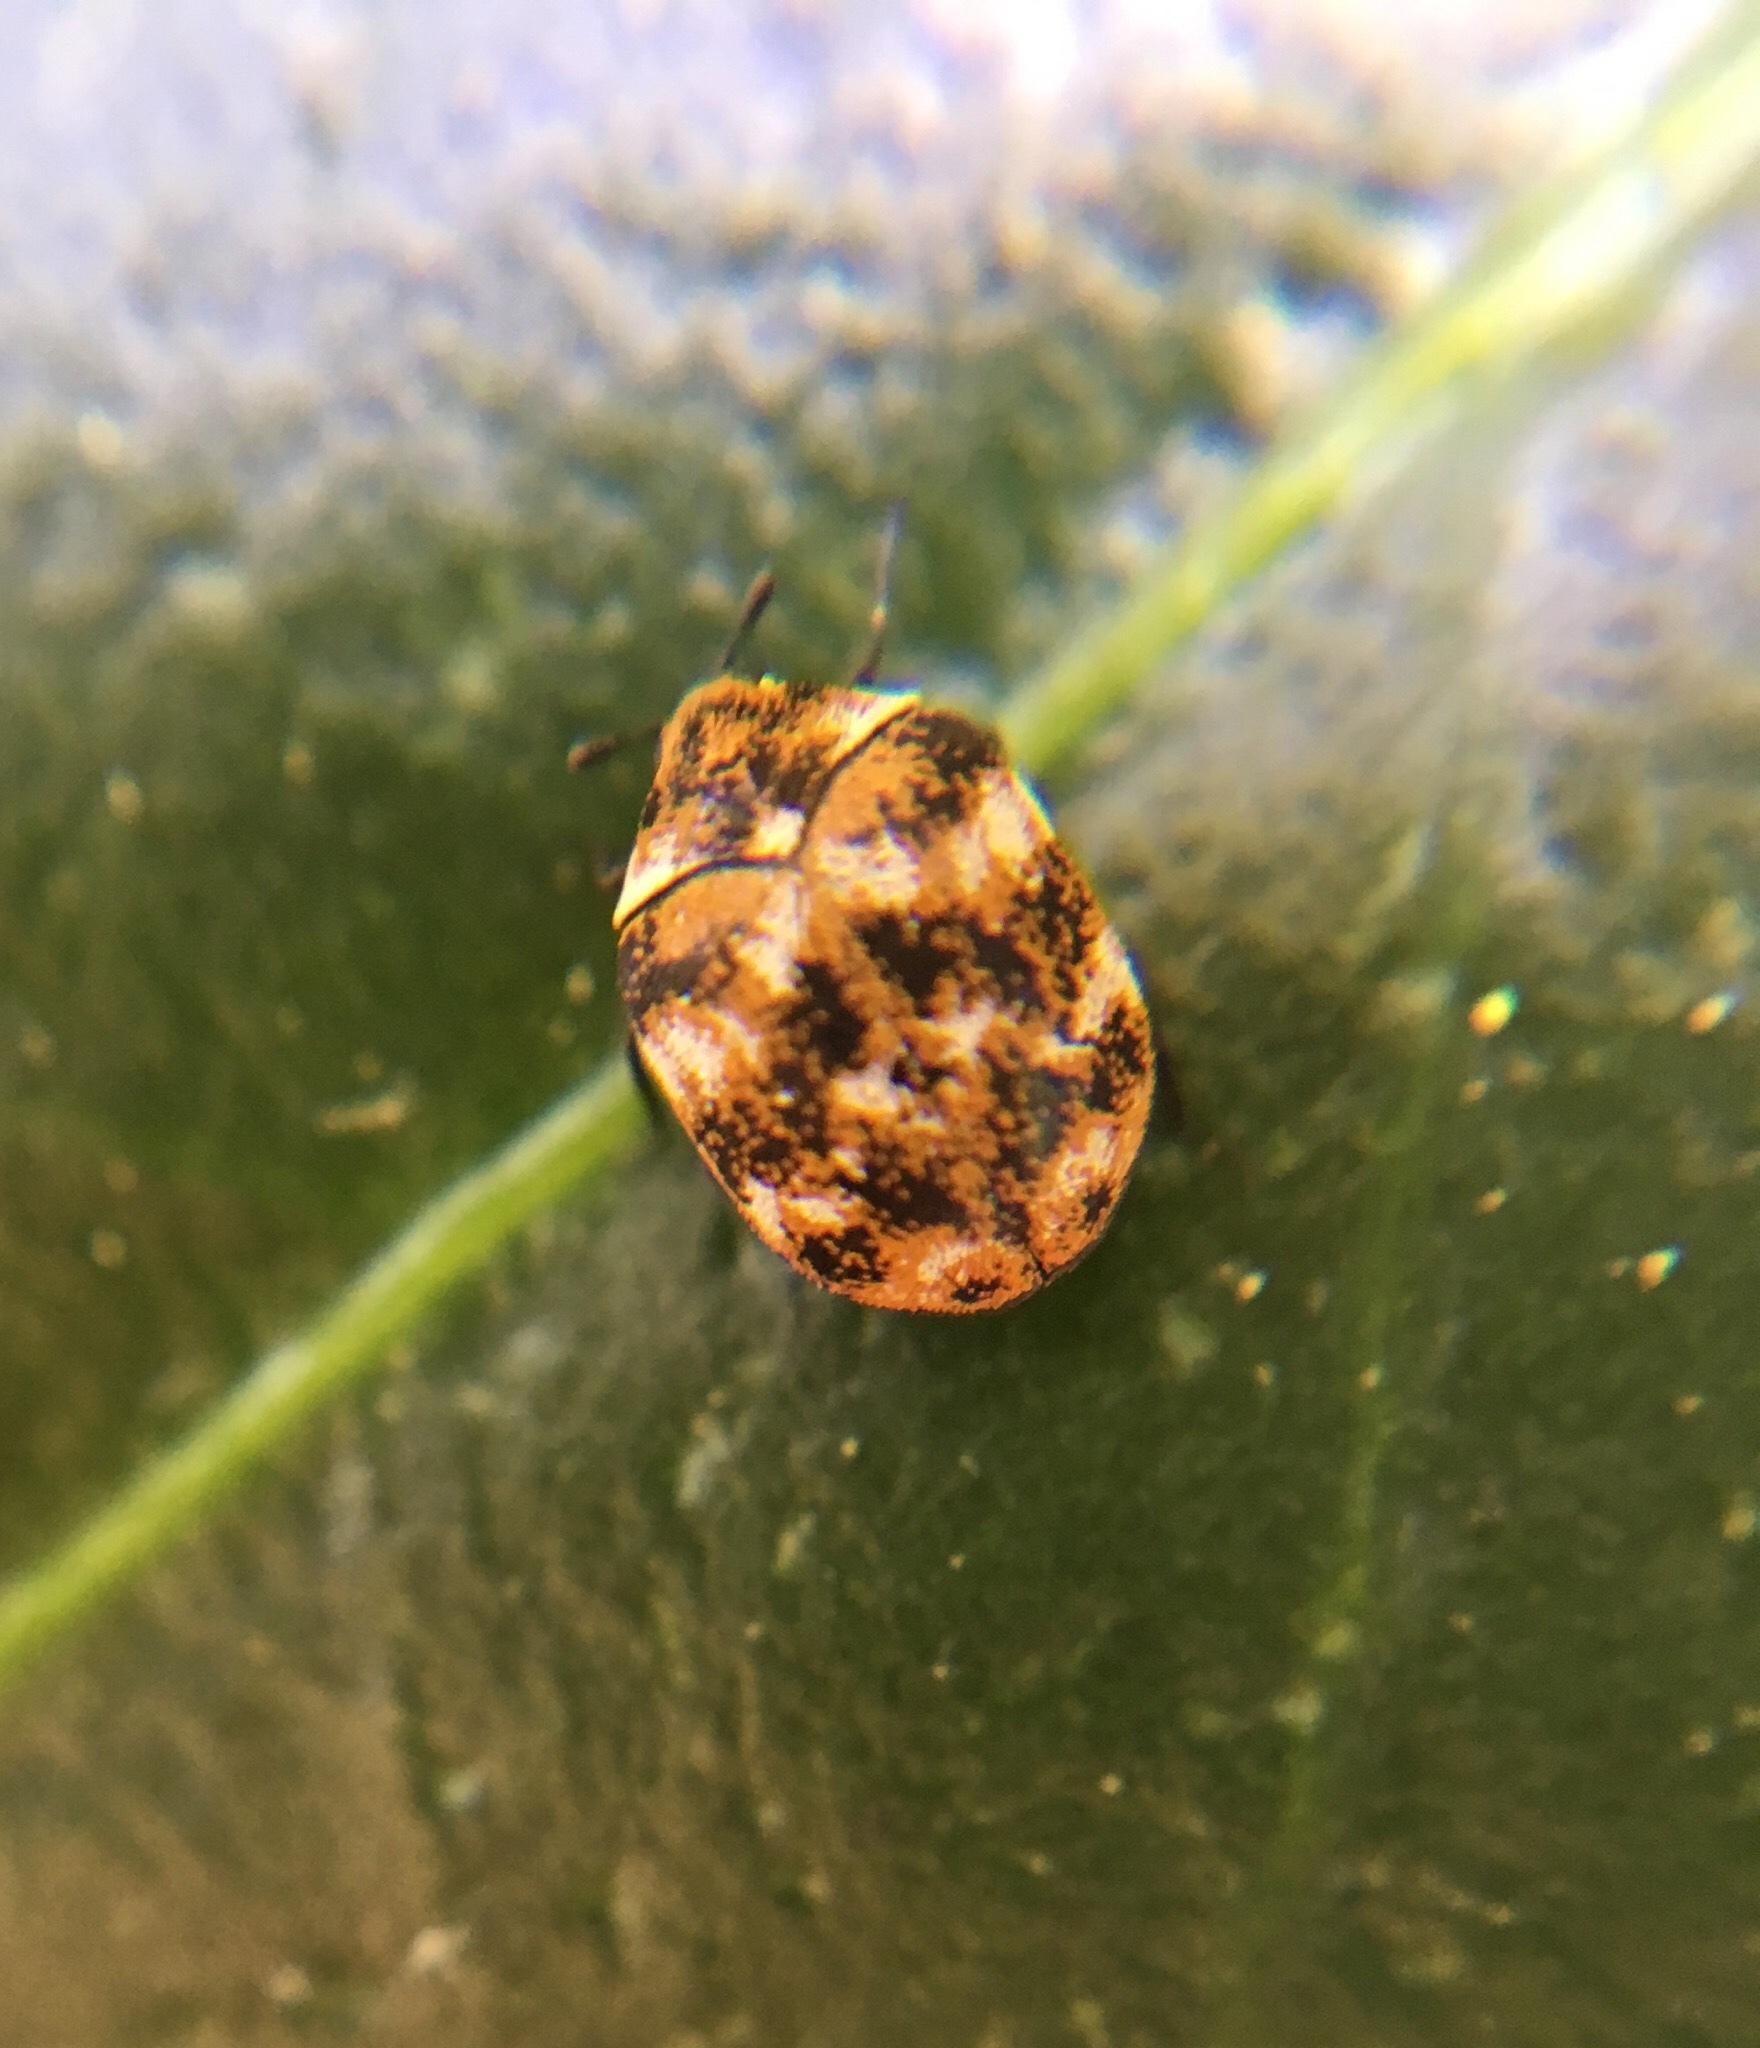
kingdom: Animalia
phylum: Arthropoda
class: Insecta
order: Coleoptera
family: Dermestidae
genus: Anthrenus
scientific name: Anthrenus verbasci
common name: Varied carpet beetle
